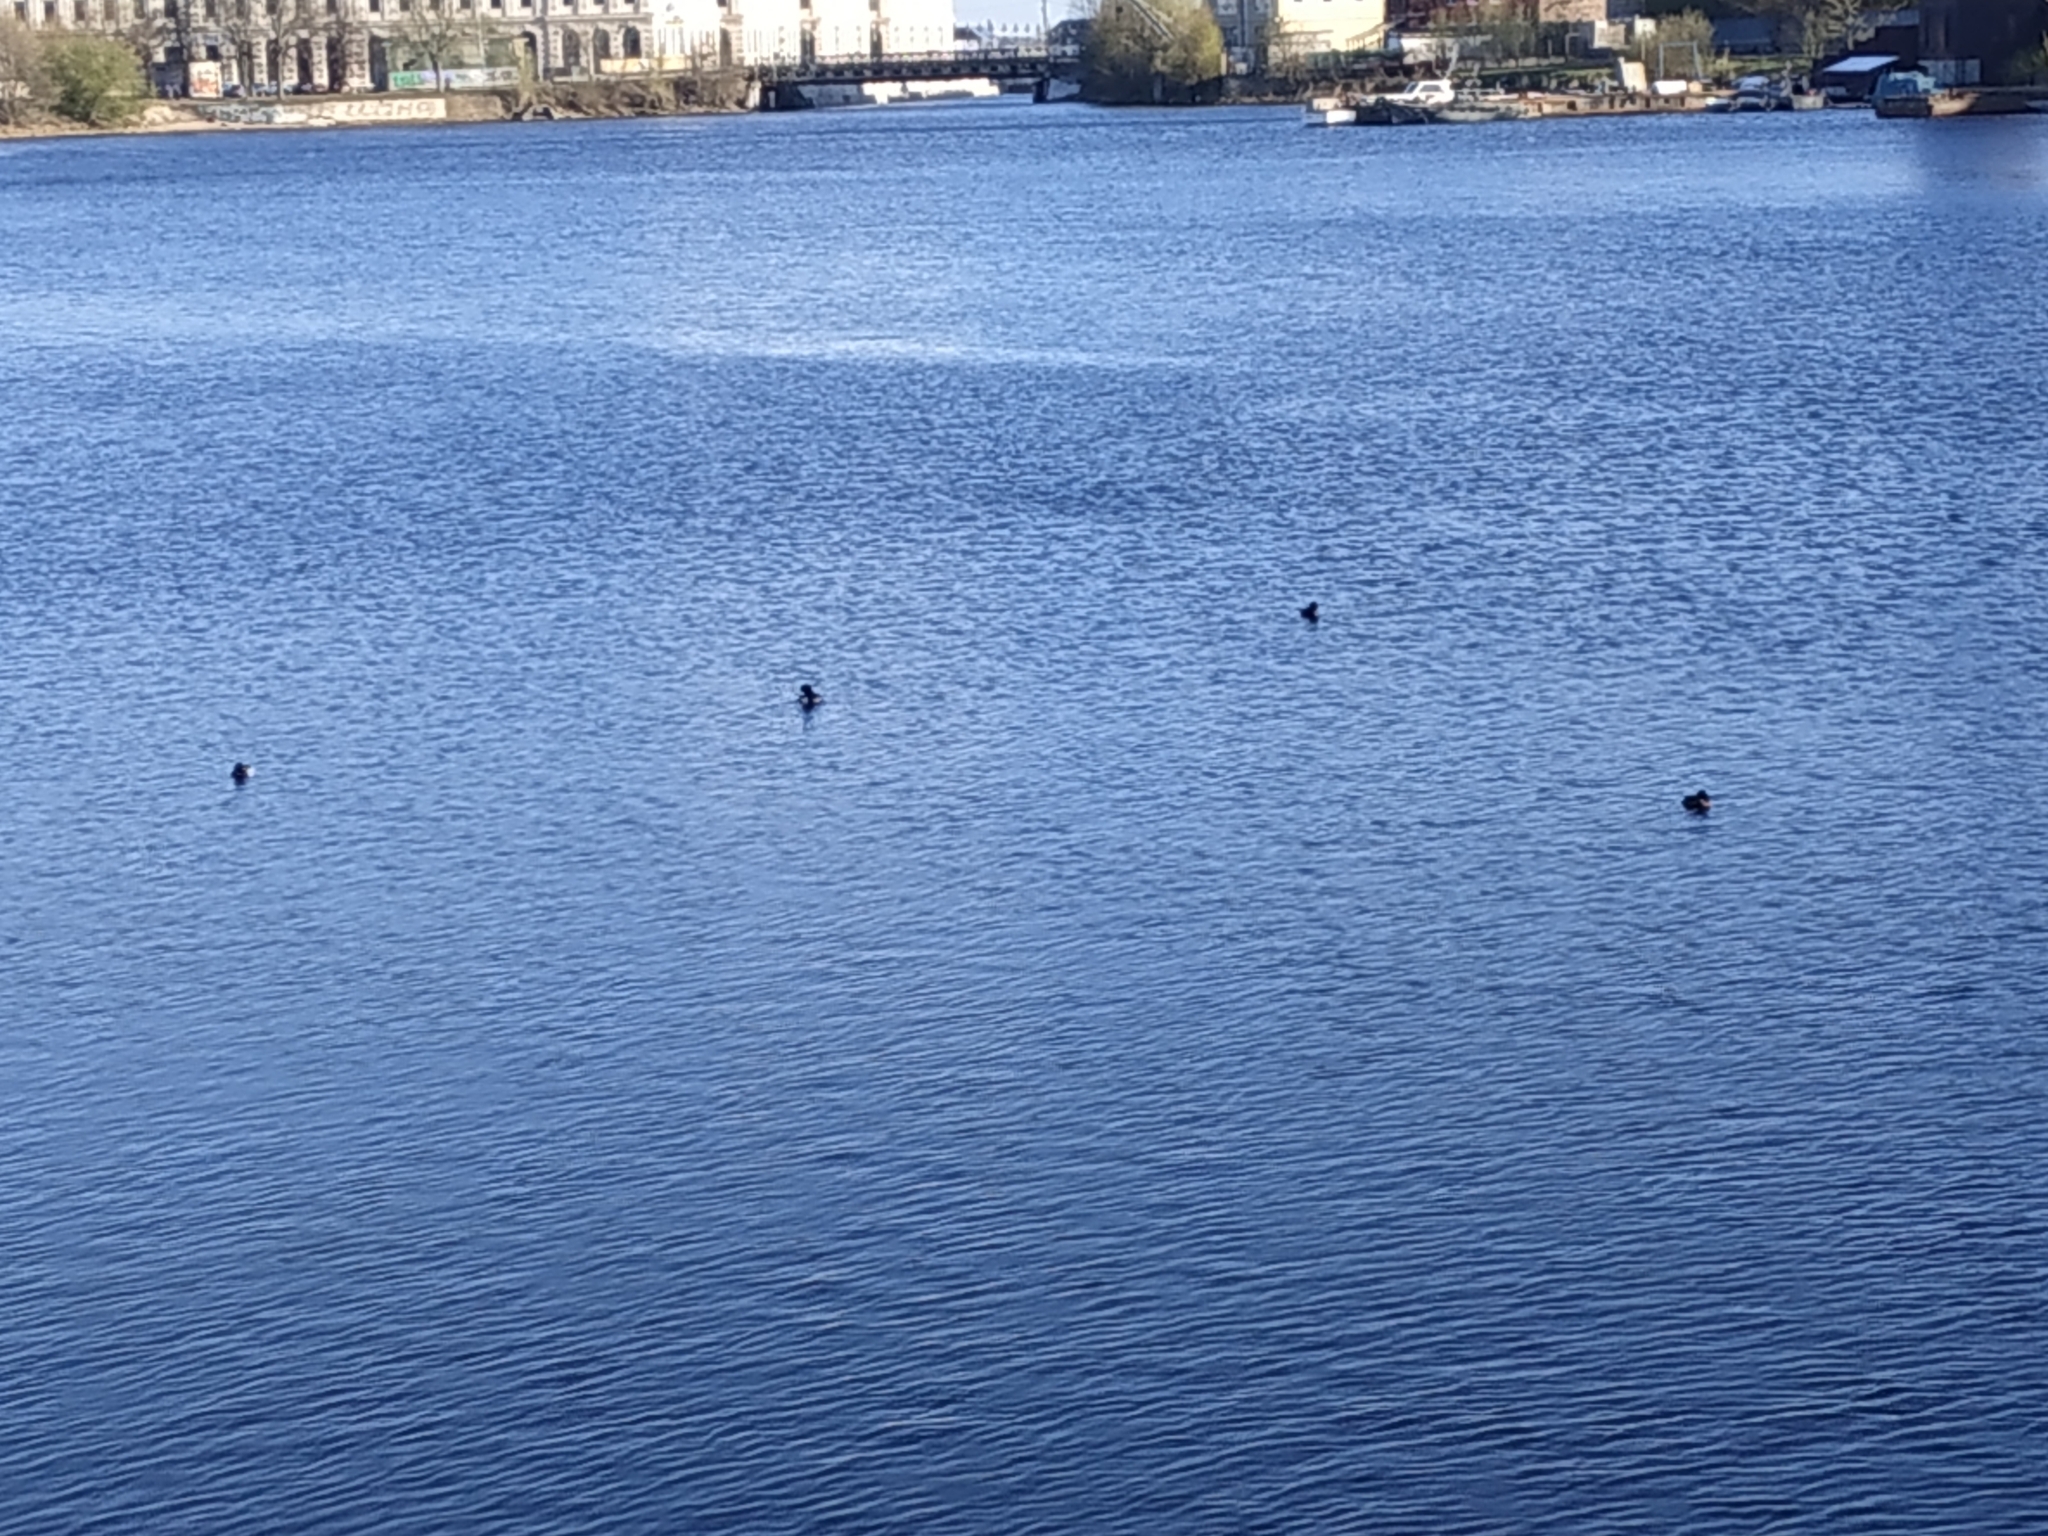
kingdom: Animalia
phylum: Chordata
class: Aves
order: Anseriformes
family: Anatidae
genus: Aythya
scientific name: Aythya fuligula
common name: Tufted duck
